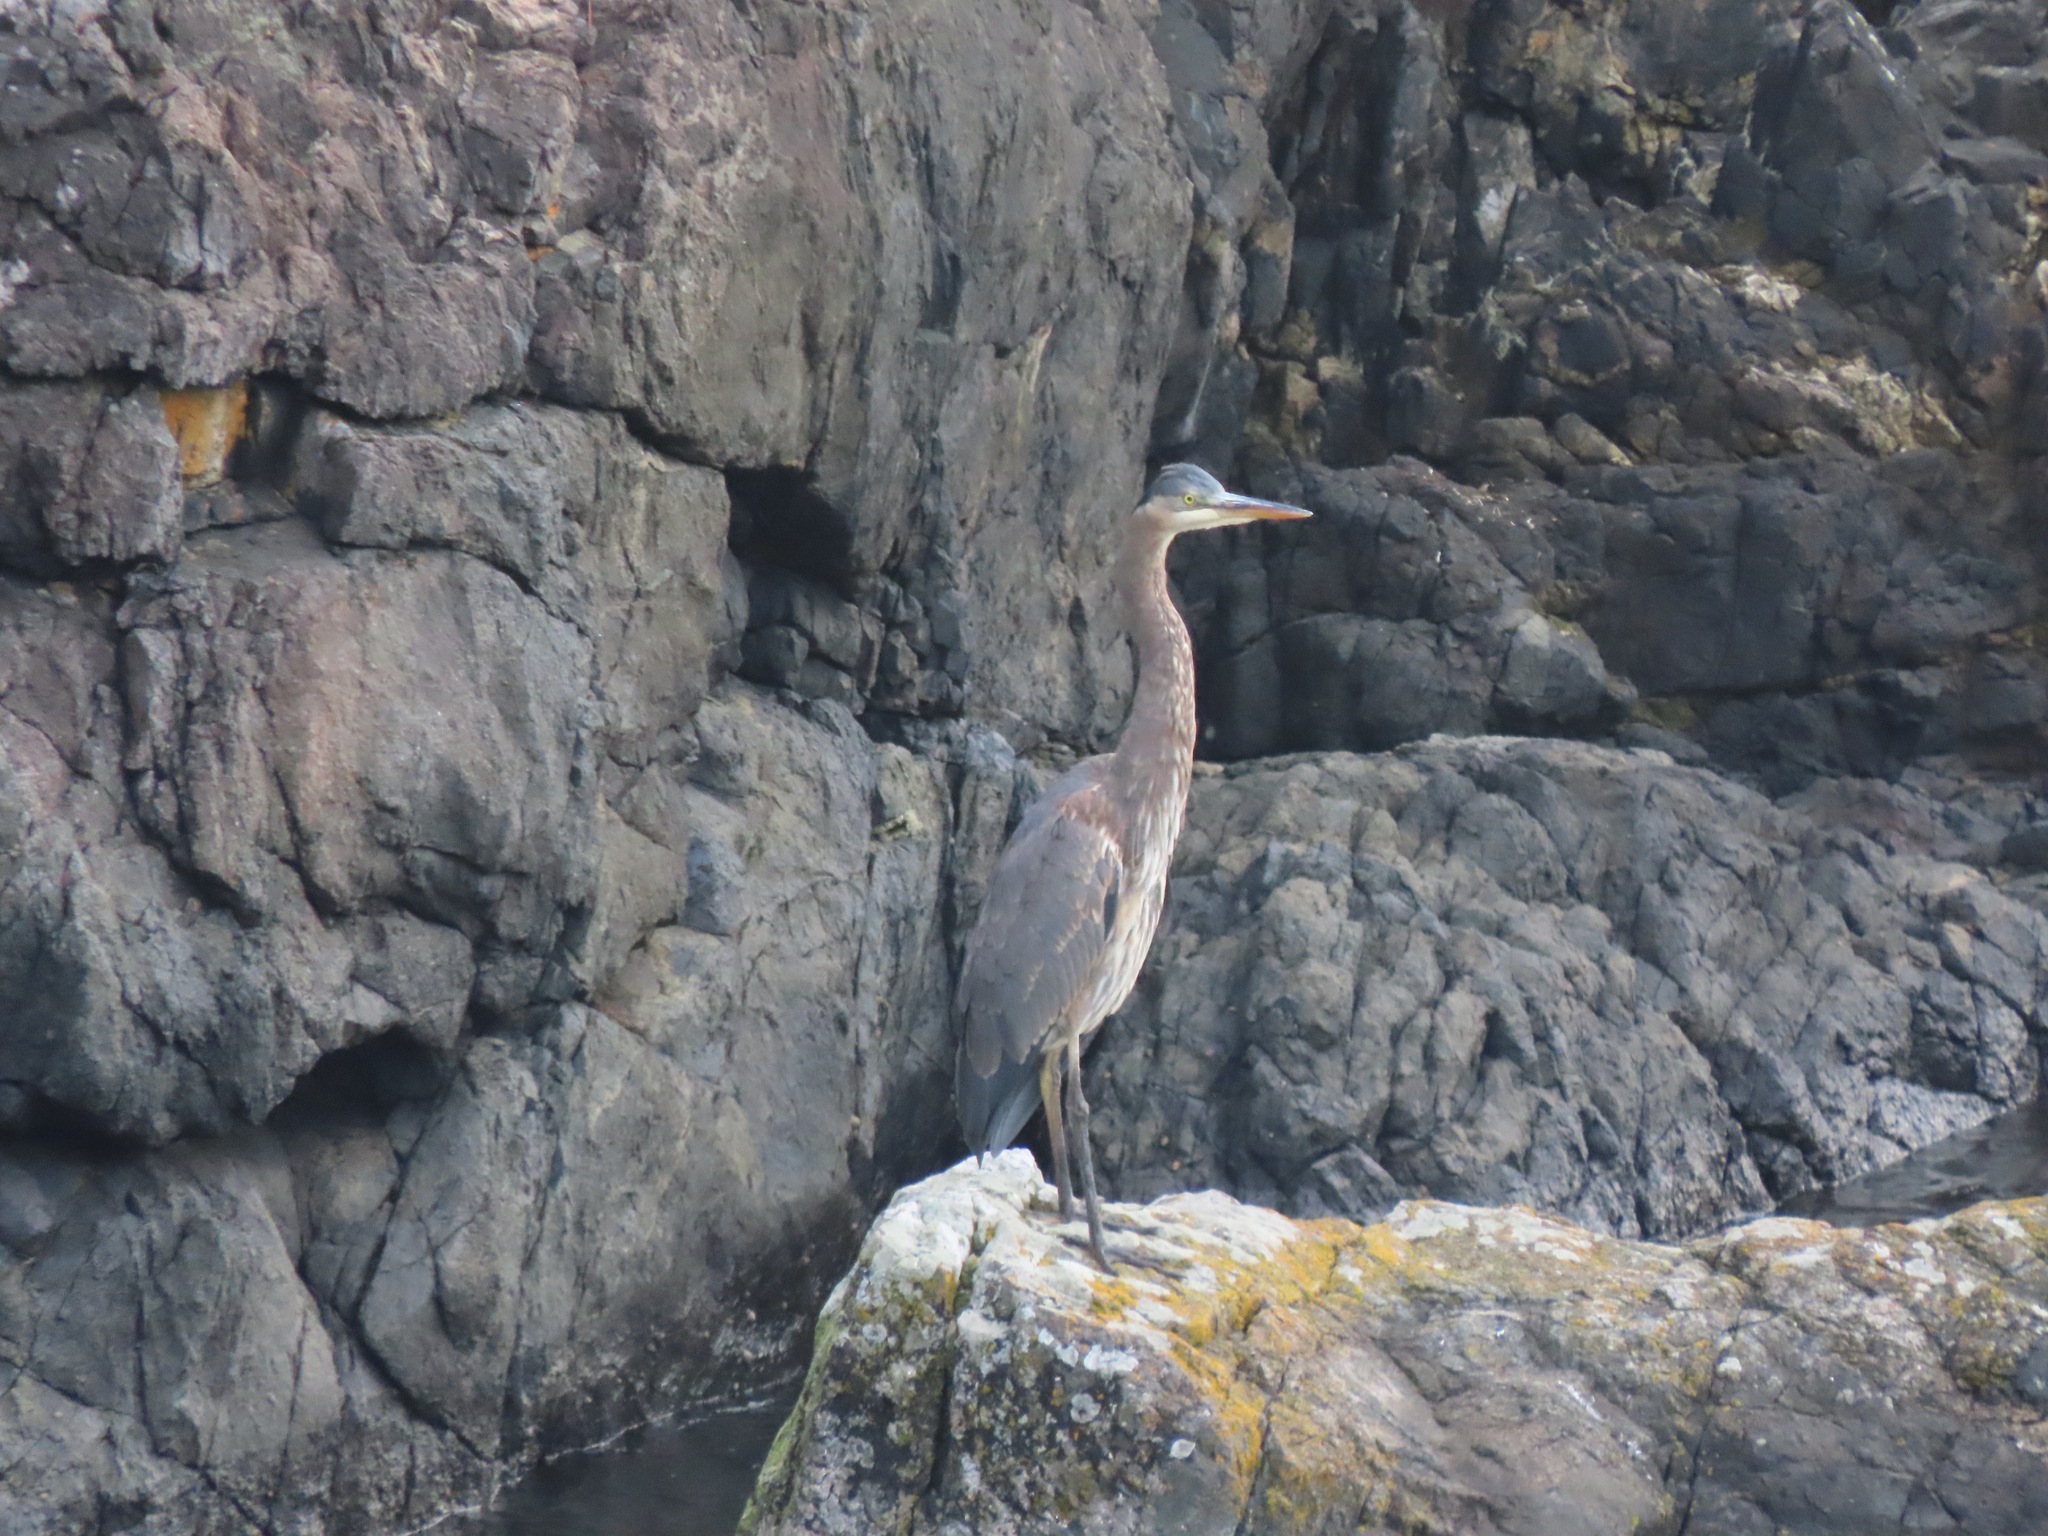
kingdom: Animalia
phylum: Chordata
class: Aves
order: Pelecaniformes
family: Ardeidae
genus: Ardea
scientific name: Ardea herodias
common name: Great blue heron
